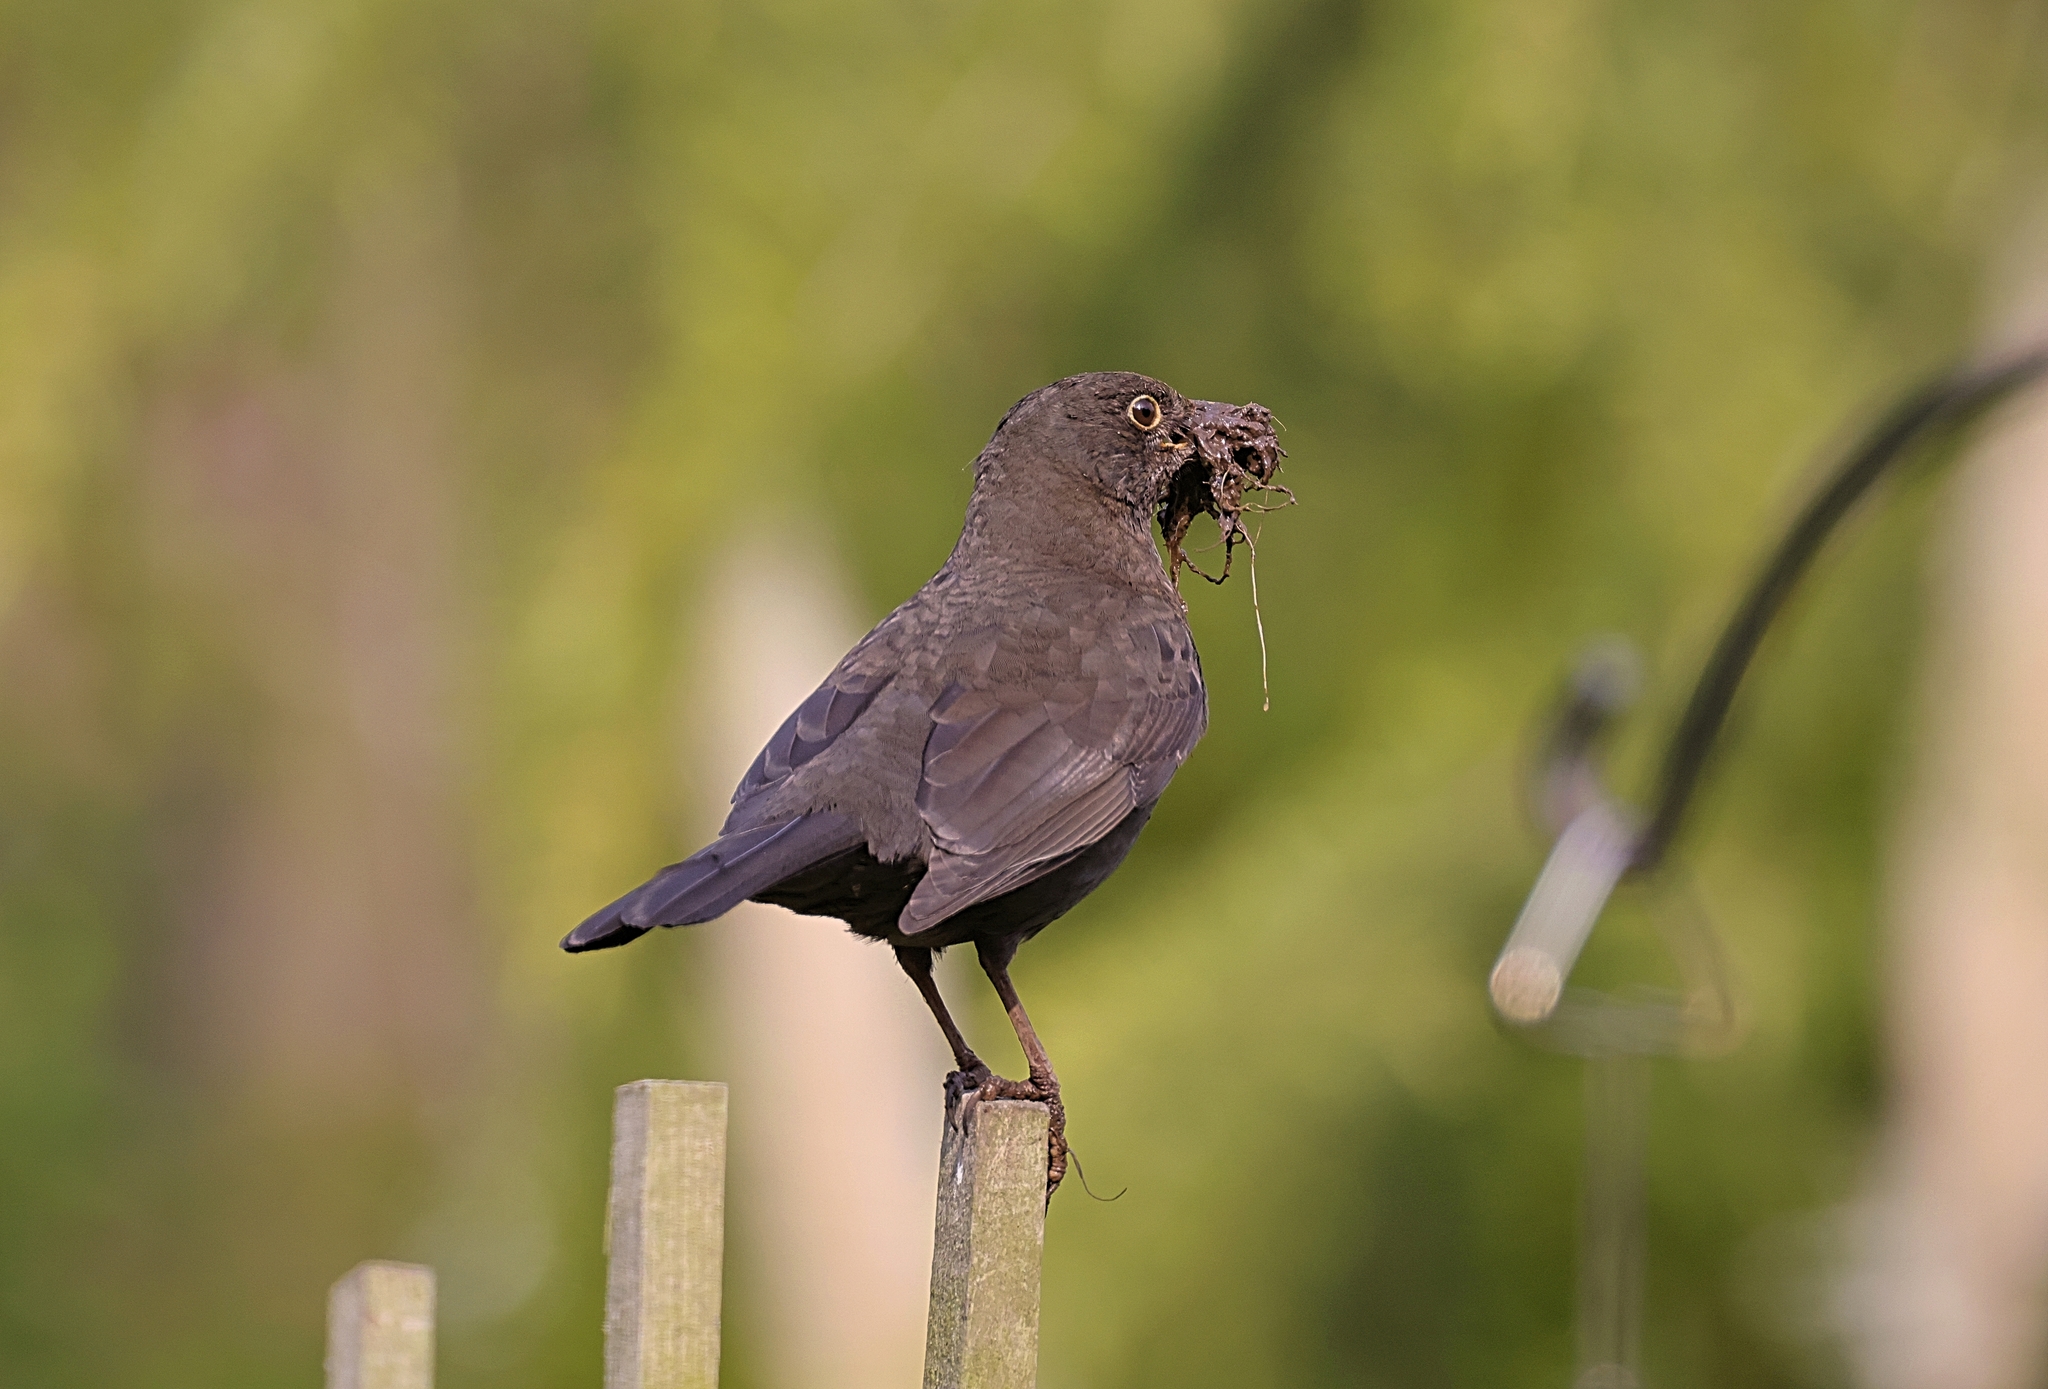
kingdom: Animalia
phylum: Chordata
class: Aves
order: Passeriformes
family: Turdidae
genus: Turdus
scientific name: Turdus merula
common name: Common blackbird
